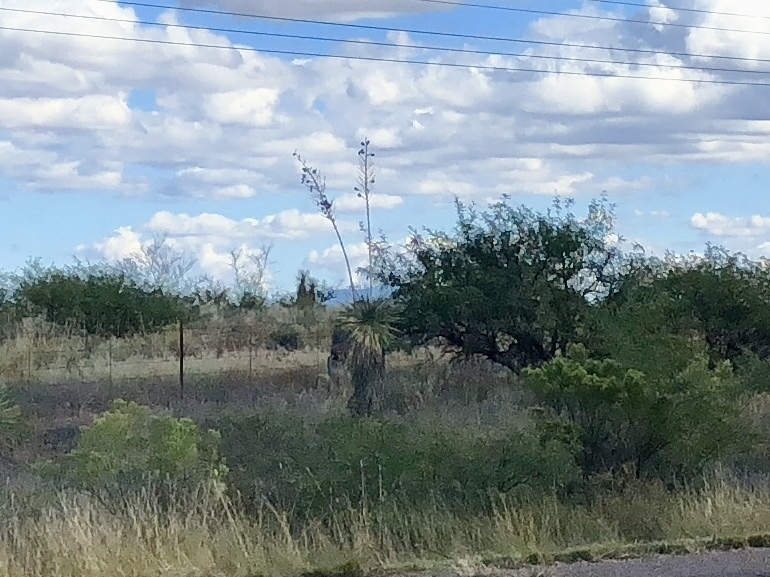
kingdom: Plantae
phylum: Tracheophyta
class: Liliopsida
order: Asparagales
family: Asparagaceae
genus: Yucca
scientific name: Yucca elata
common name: Palmella
